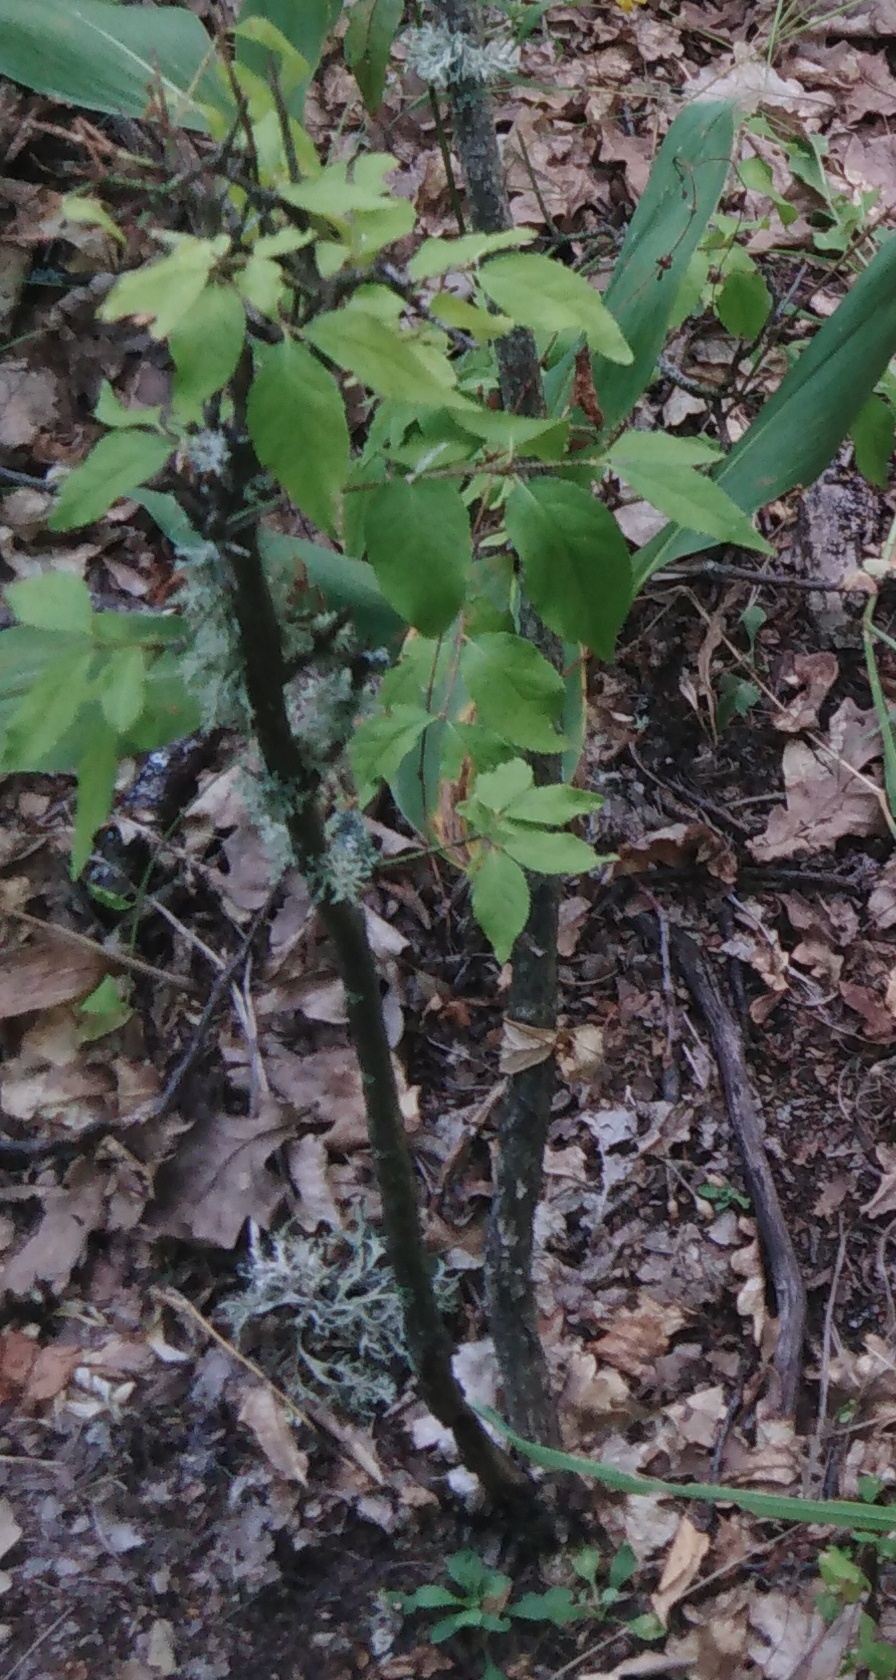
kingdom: Plantae
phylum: Tracheophyta
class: Magnoliopsida
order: Celastrales
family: Celastraceae
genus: Euonymus
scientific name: Euonymus verrucosus
